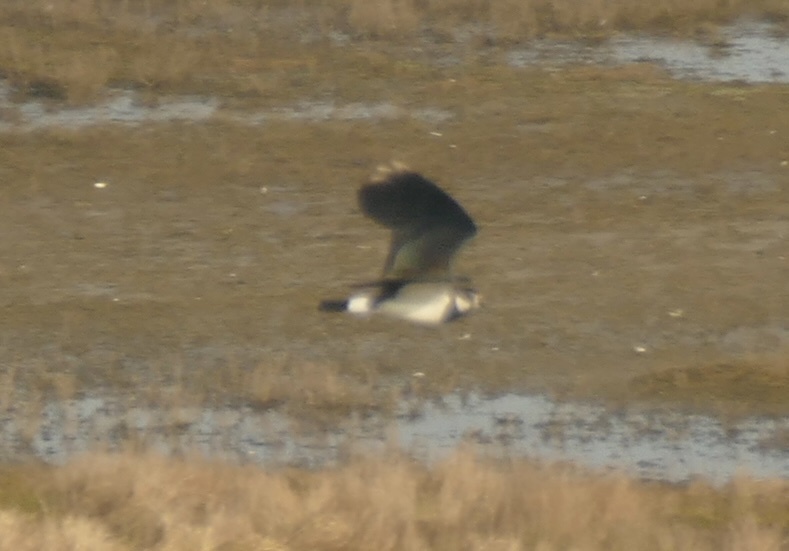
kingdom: Animalia
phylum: Chordata
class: Aves
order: Charadriiformes
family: Charadriidae
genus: Vanellus
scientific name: Vanellus vanellus
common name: Northern lapwing
